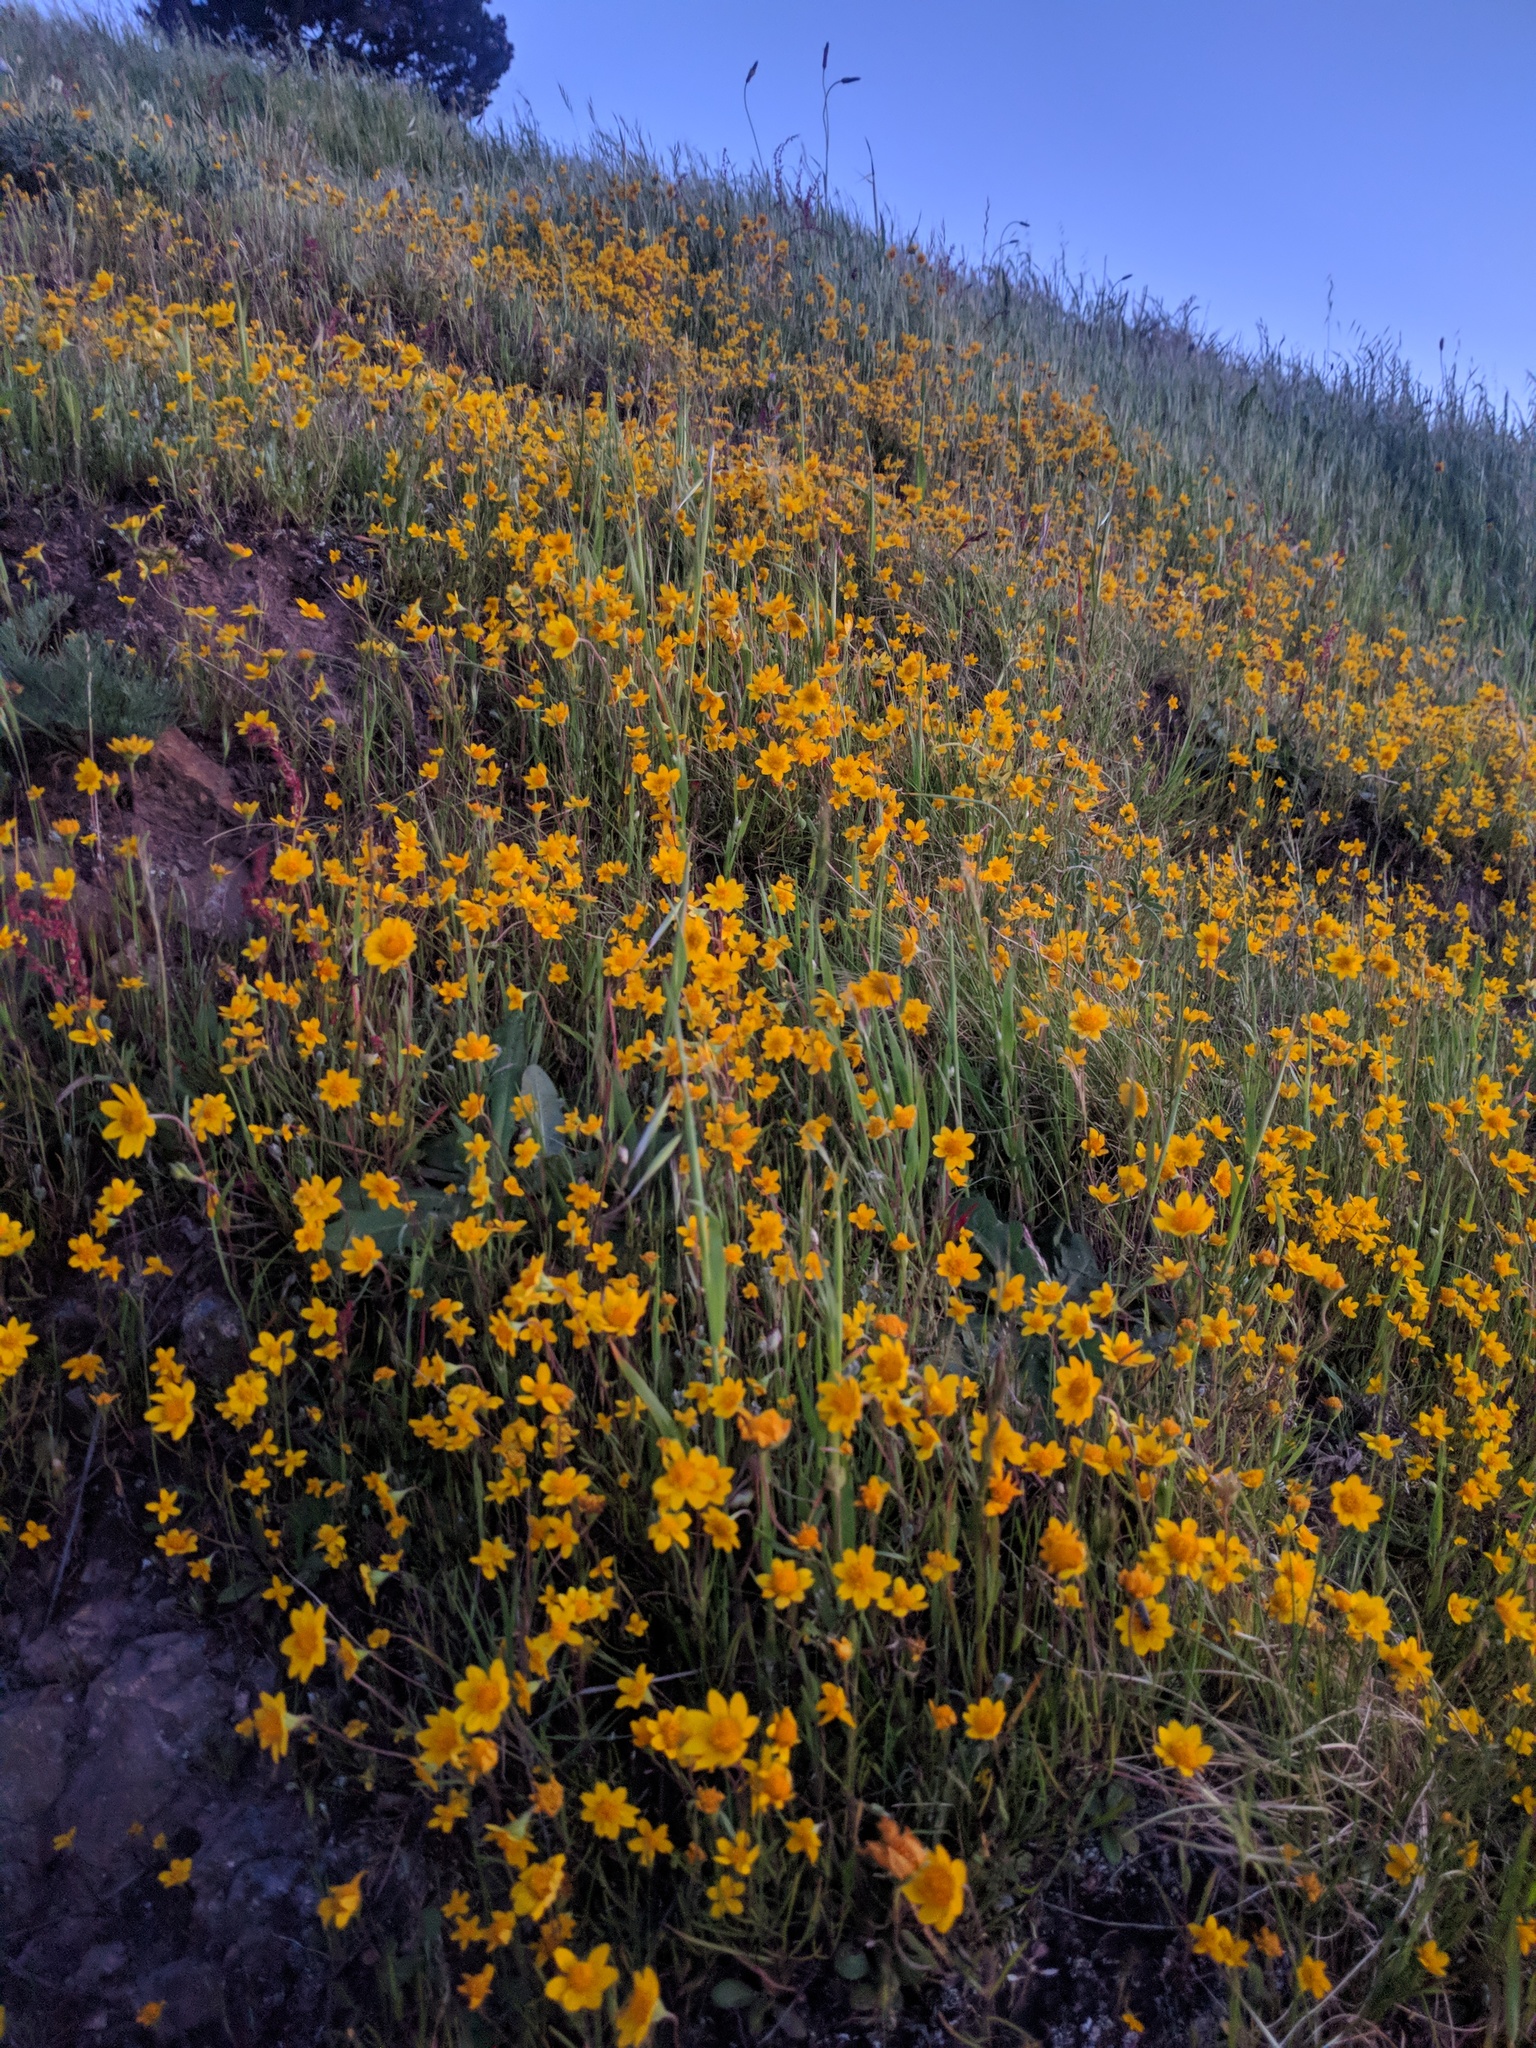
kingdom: Plantae
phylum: Tracheophyta
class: Magnoliopsida
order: Asterales
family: Asteraceae
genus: Lasthenia
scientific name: Lasthenia californica
